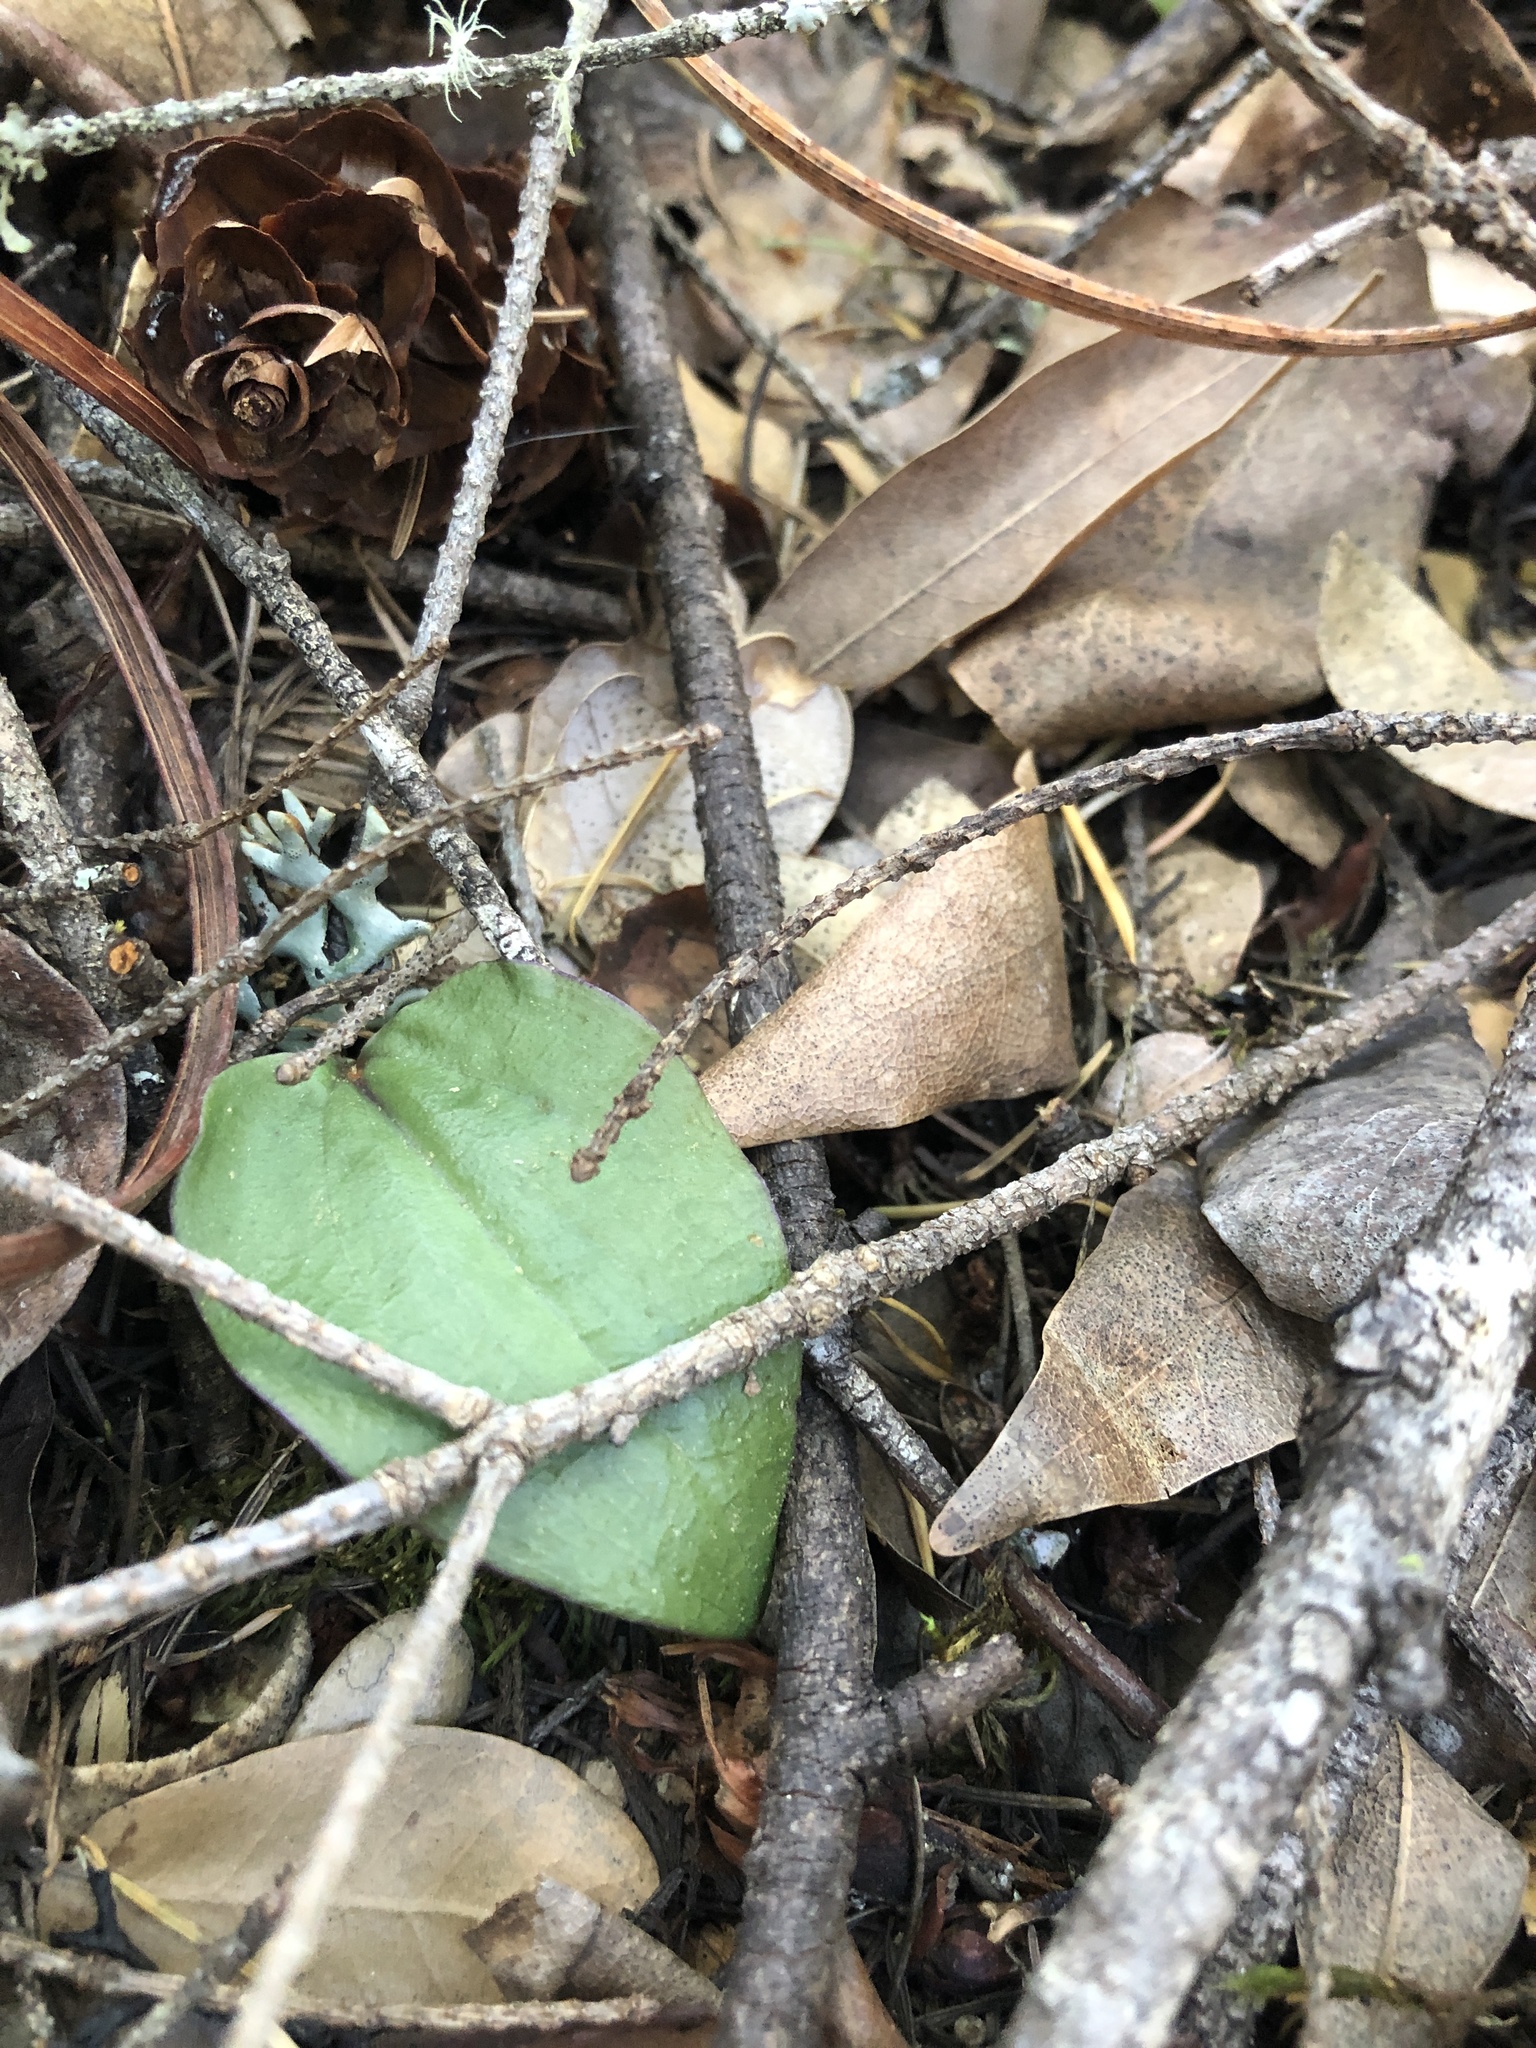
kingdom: Plantae
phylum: Tracheophyta
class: Liliopsida
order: Asparagales
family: Orchidaceae
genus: Calypso
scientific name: Calypso bulbosa
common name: Calypso
